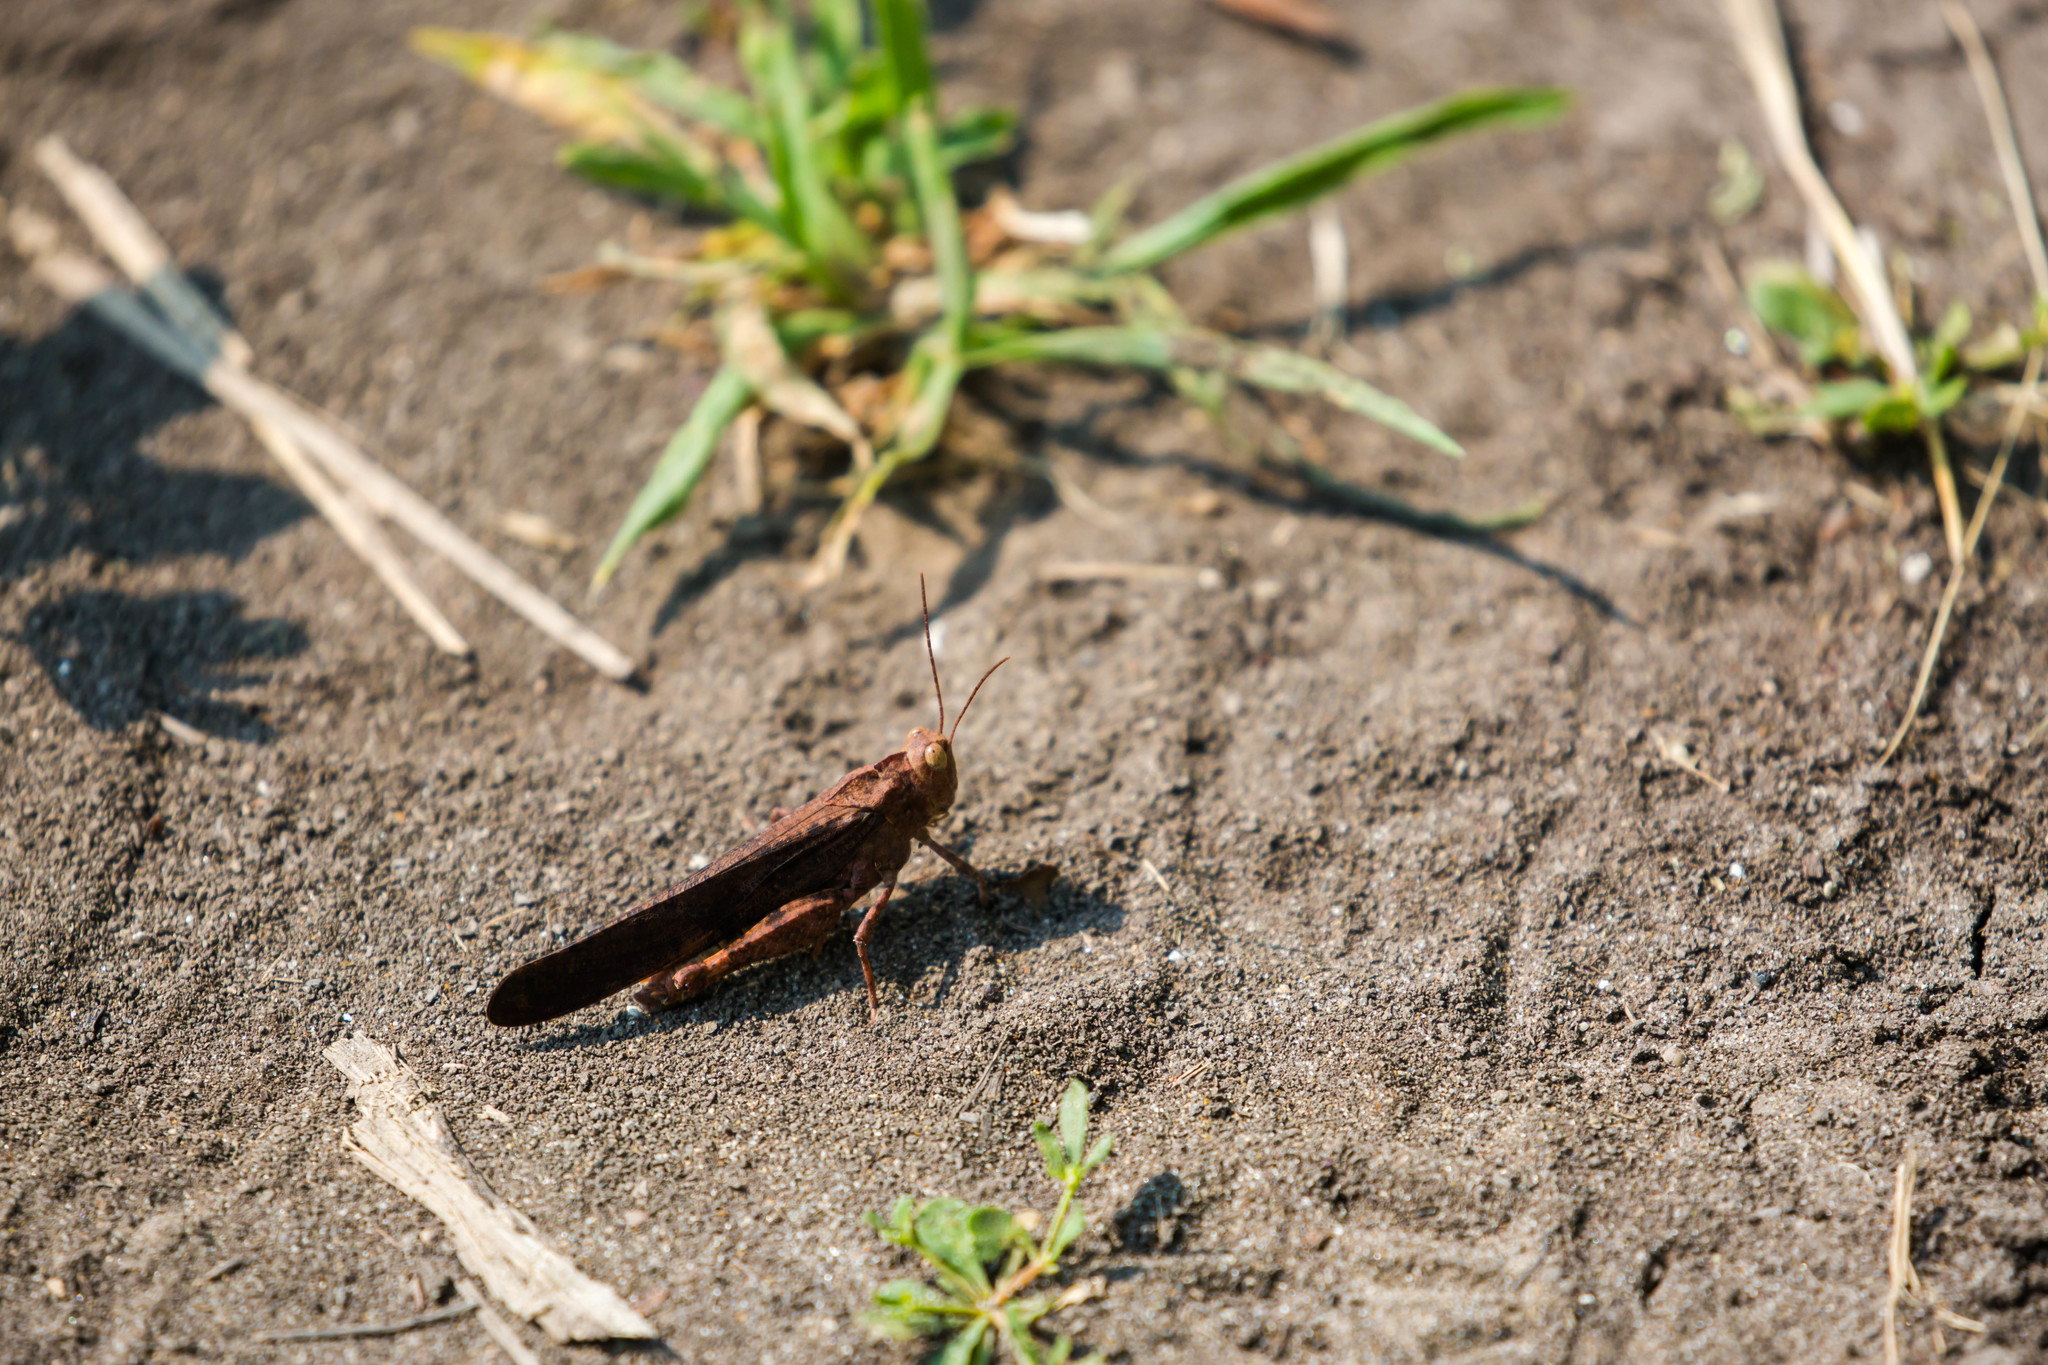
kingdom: Animalia
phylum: Arthropoda
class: Insecta
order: Orthoptera
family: Acrididae
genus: Dissosteira
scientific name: Dissosteira carolina
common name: Carolina grasshopper
